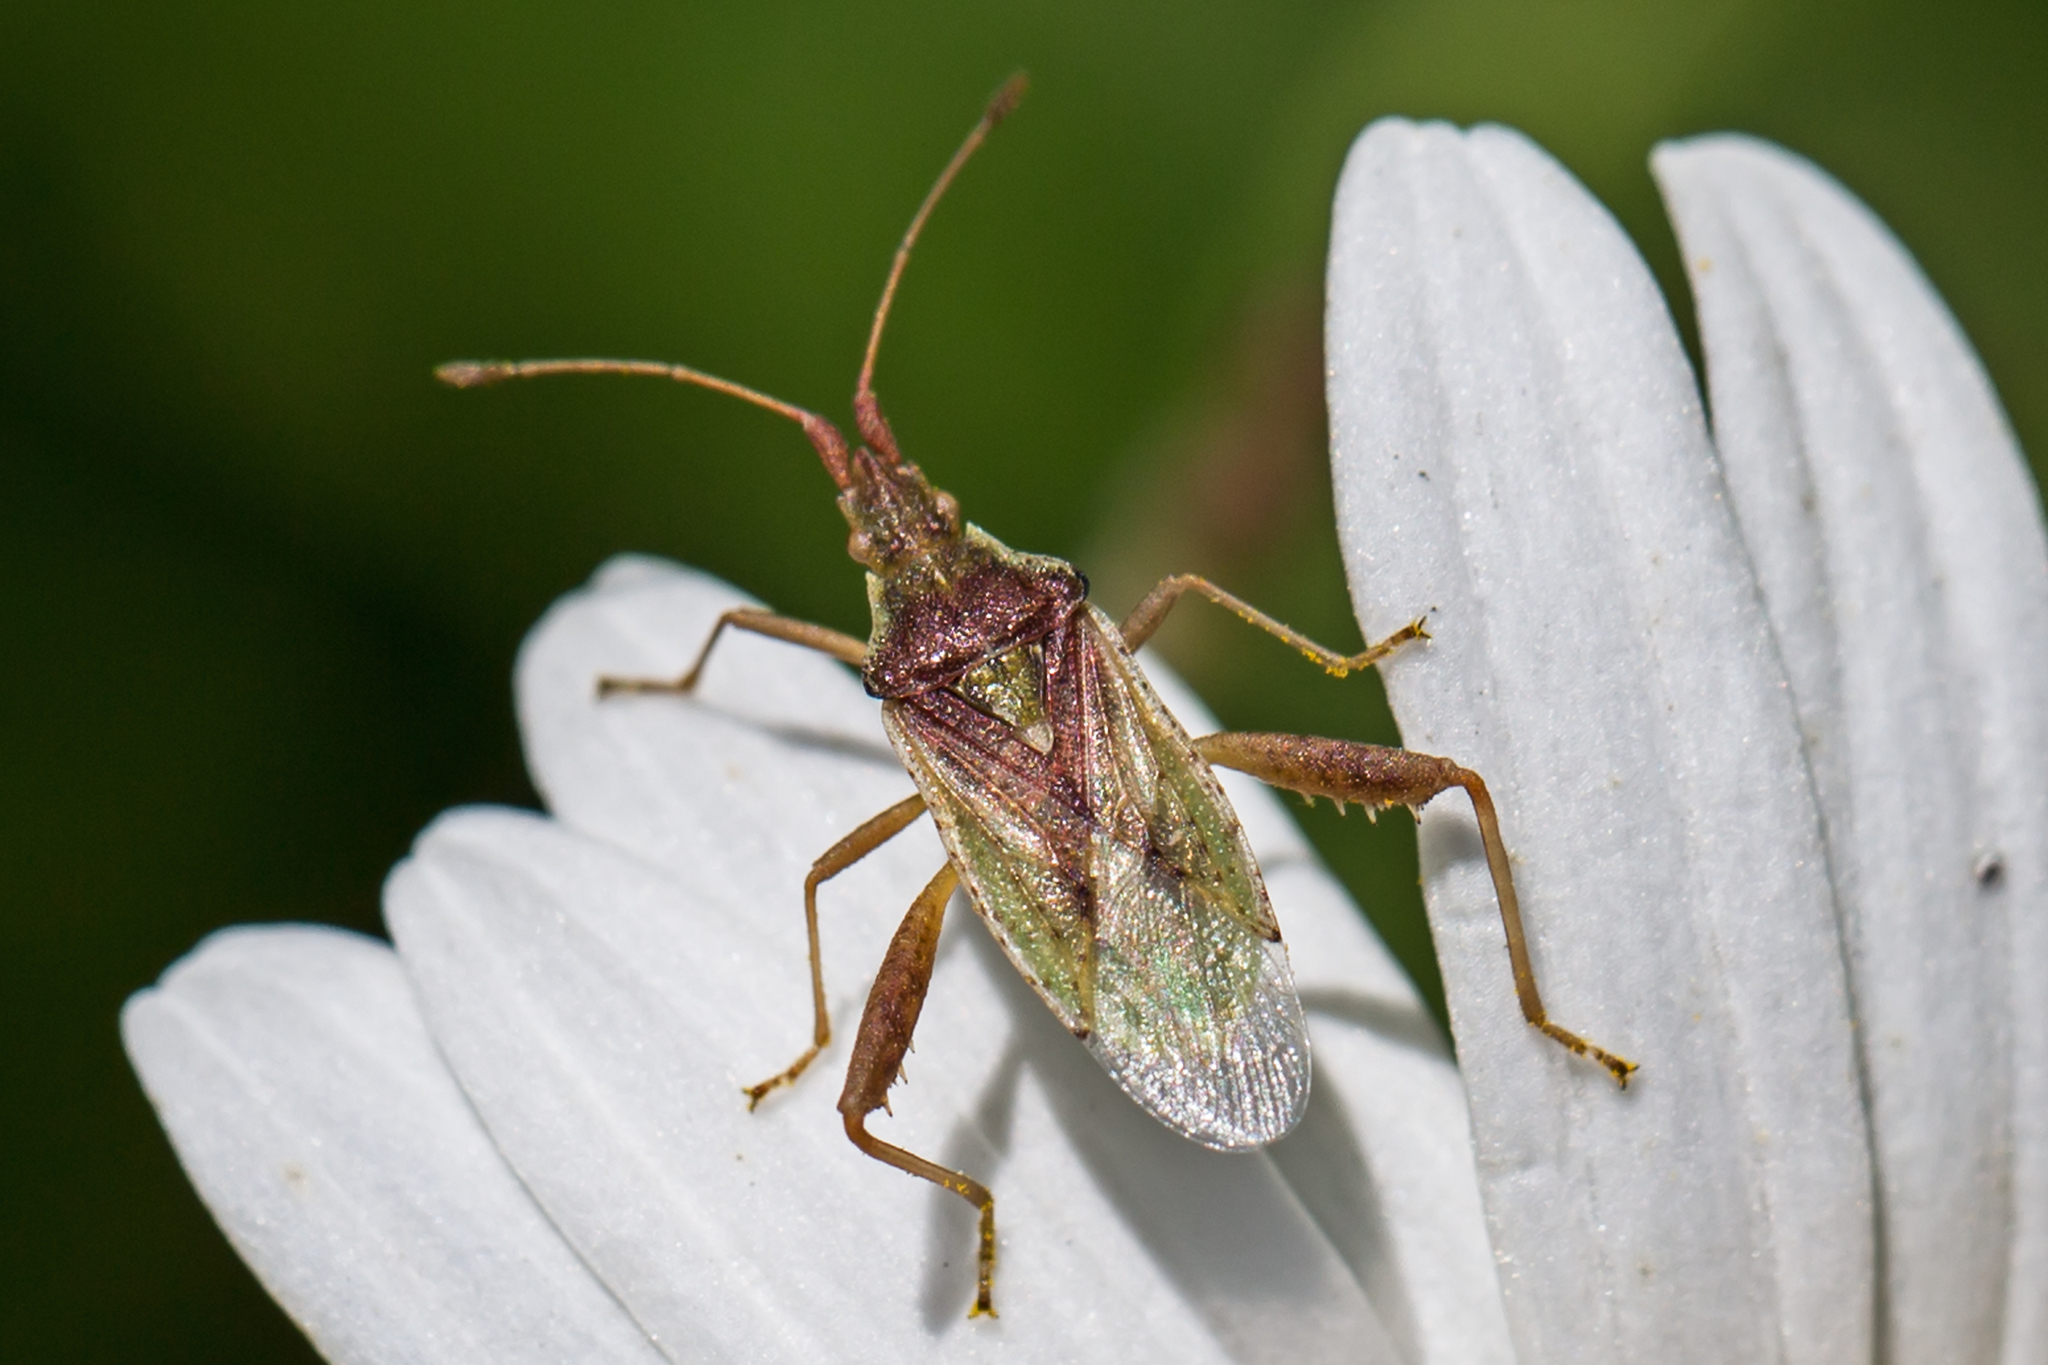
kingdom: Animalia
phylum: Arthropoda
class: Insecta
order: Hemiptera
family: Rhopalidae
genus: Harmostes
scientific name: Harmostes reflexulus
